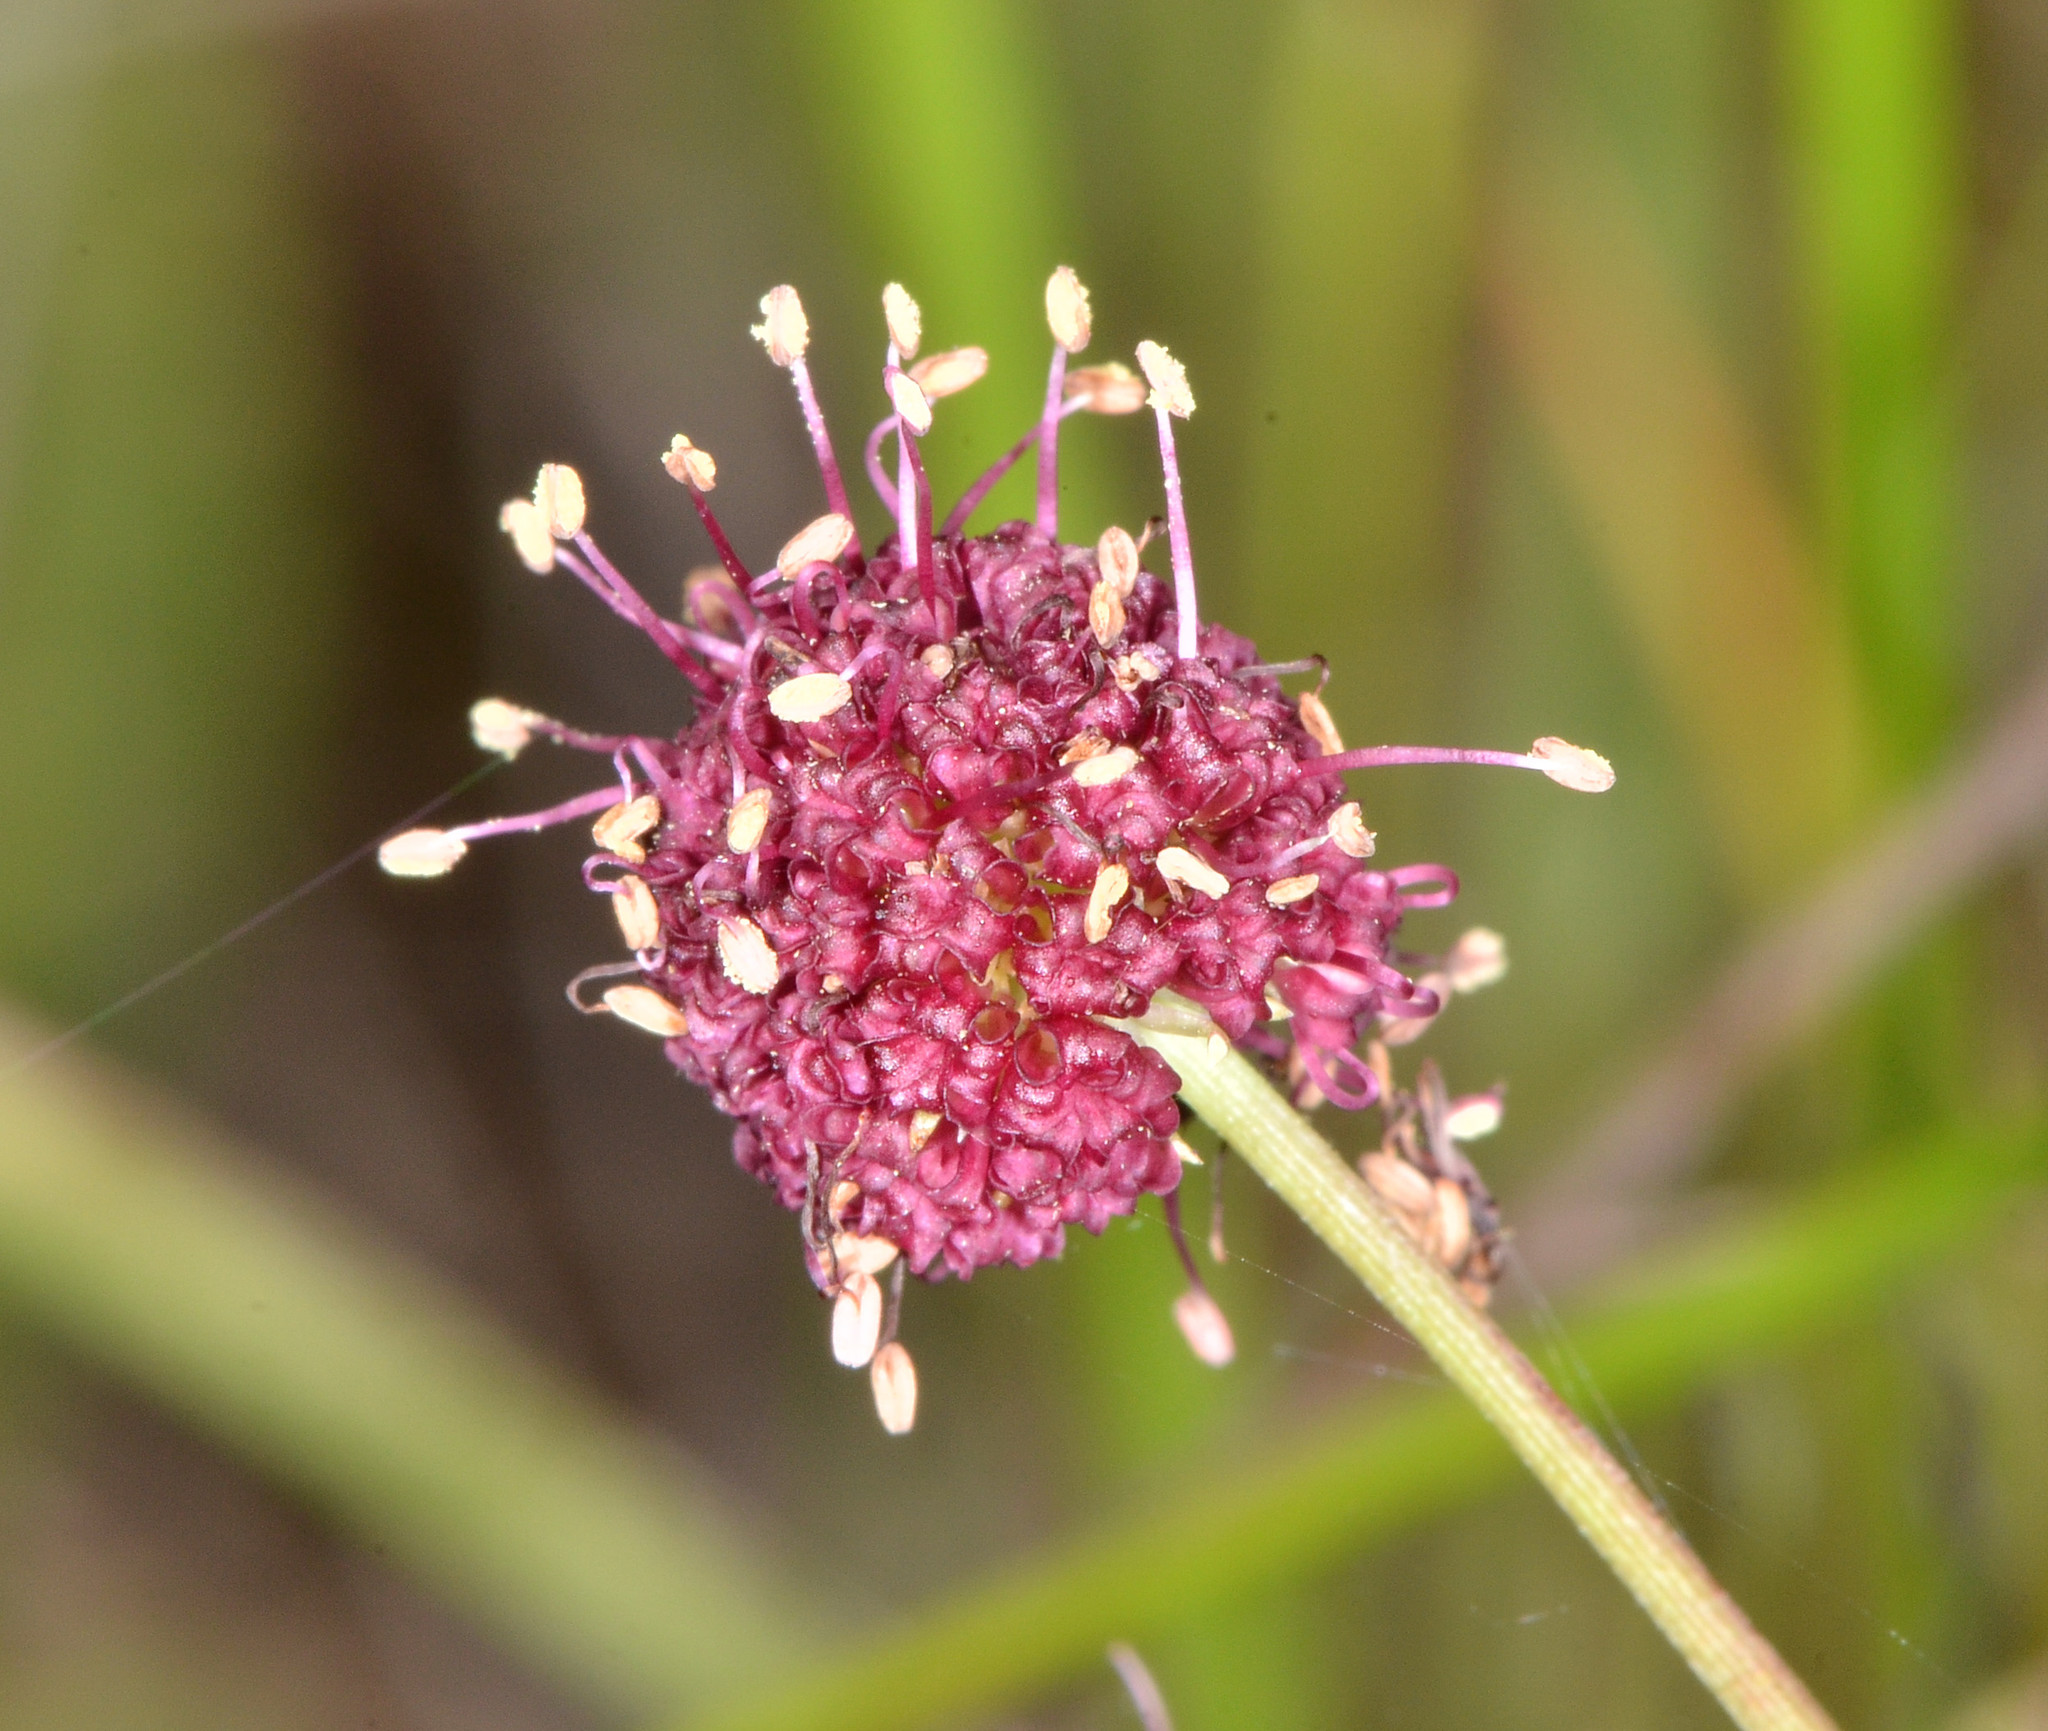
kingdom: Plantae
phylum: Tracheophyta
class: Magnoliopsida
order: Apiales
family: Apiaceae
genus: Sanicula
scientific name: Sanicula bipinnatifida
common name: Shoe-buttons
